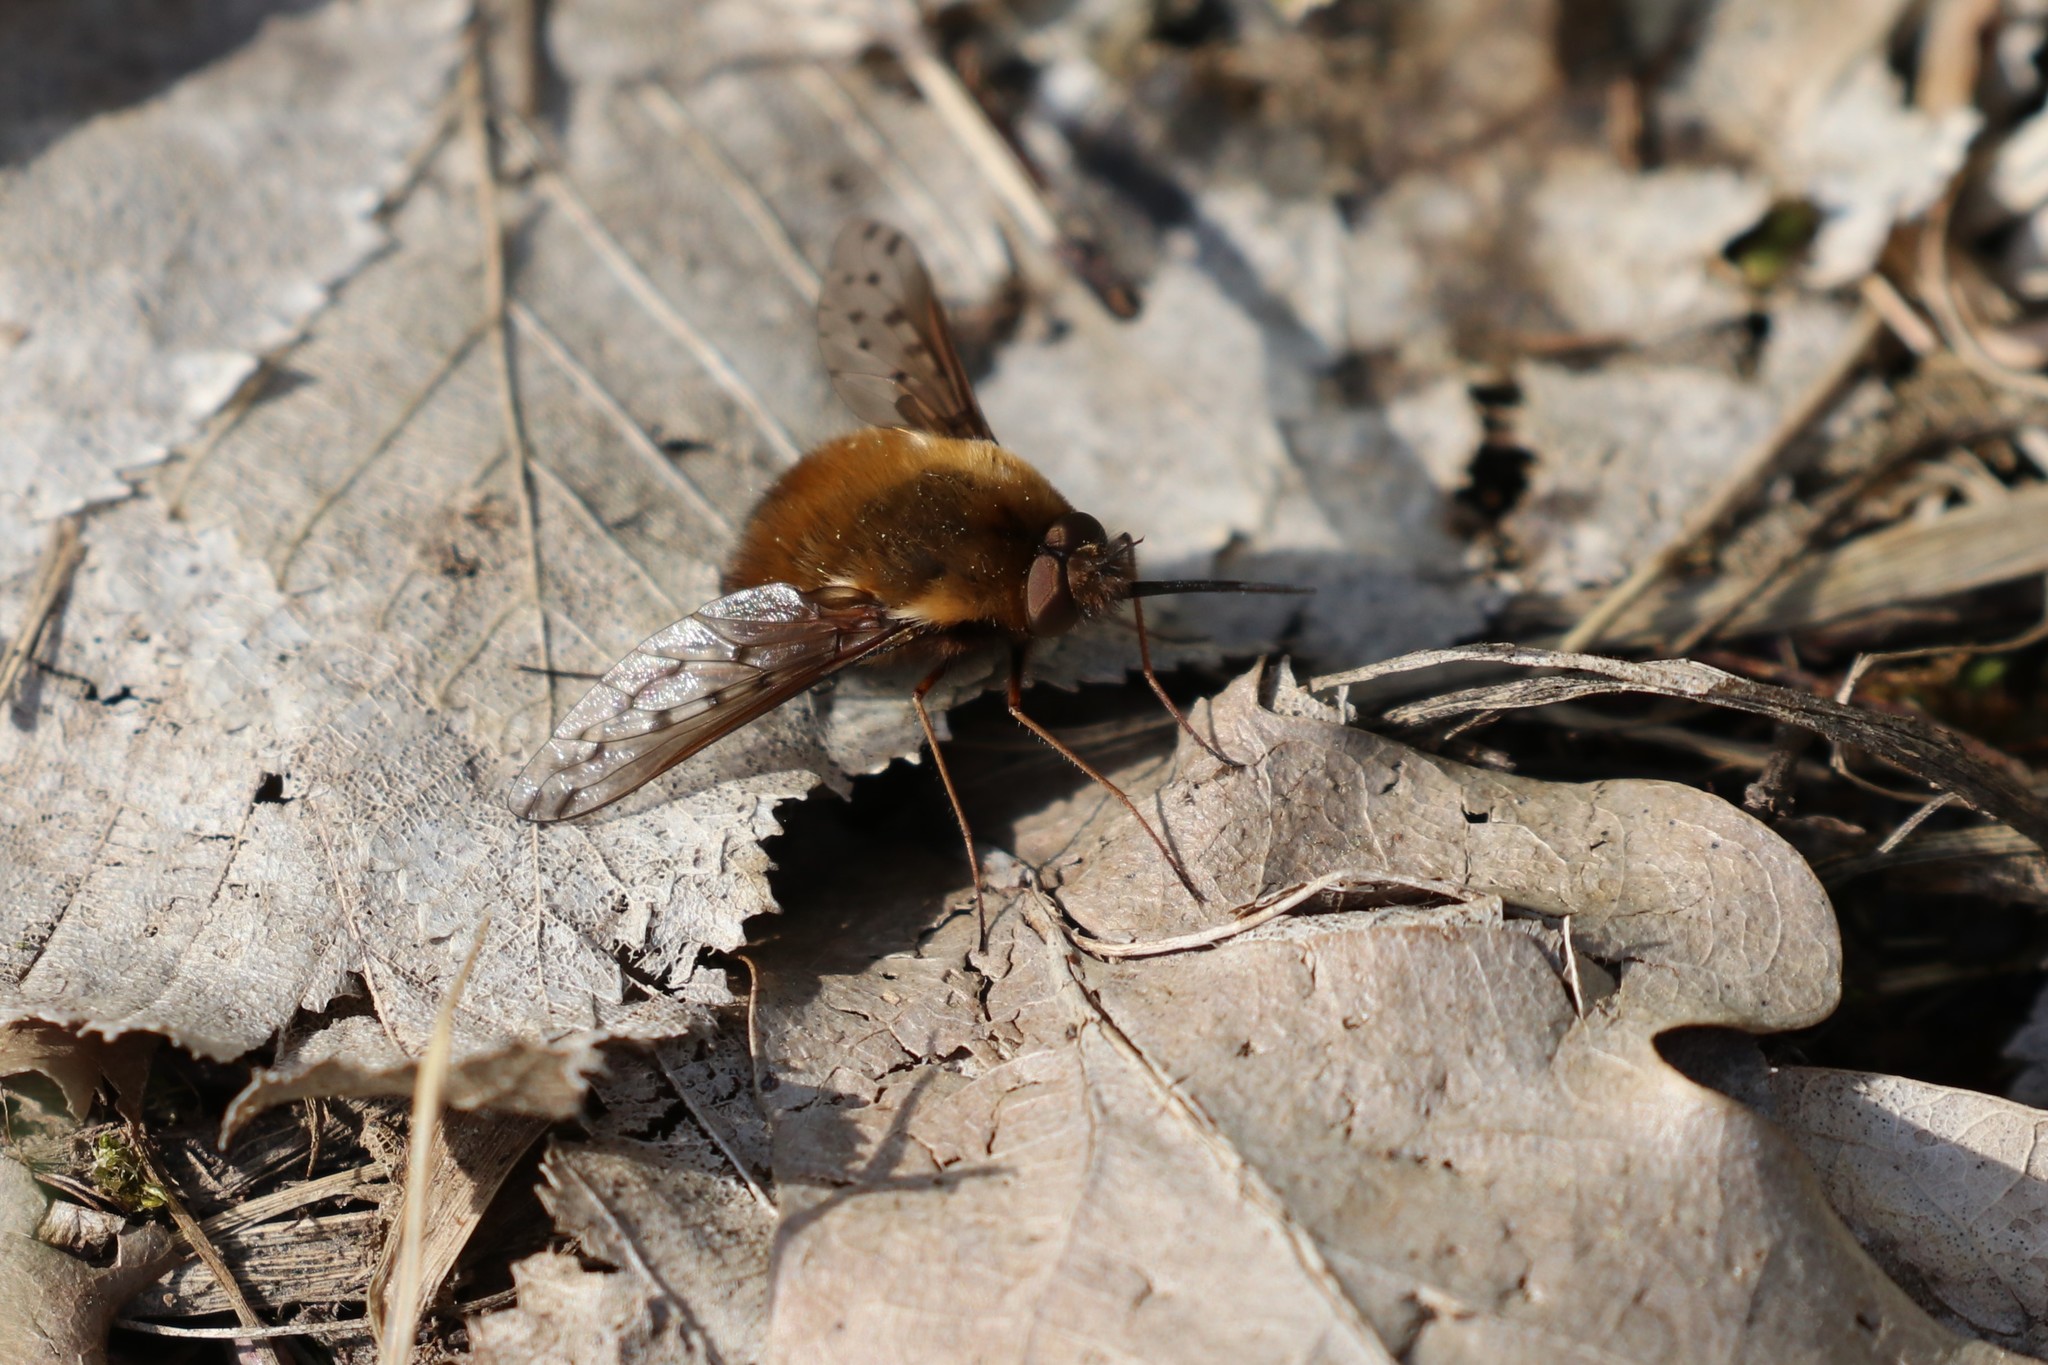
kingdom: Animalia
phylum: Arthropoda
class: Insecta
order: Diptera
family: Bombyliidae
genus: Bombylius
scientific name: Bombylius discolor
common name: Dotted bee-fly
